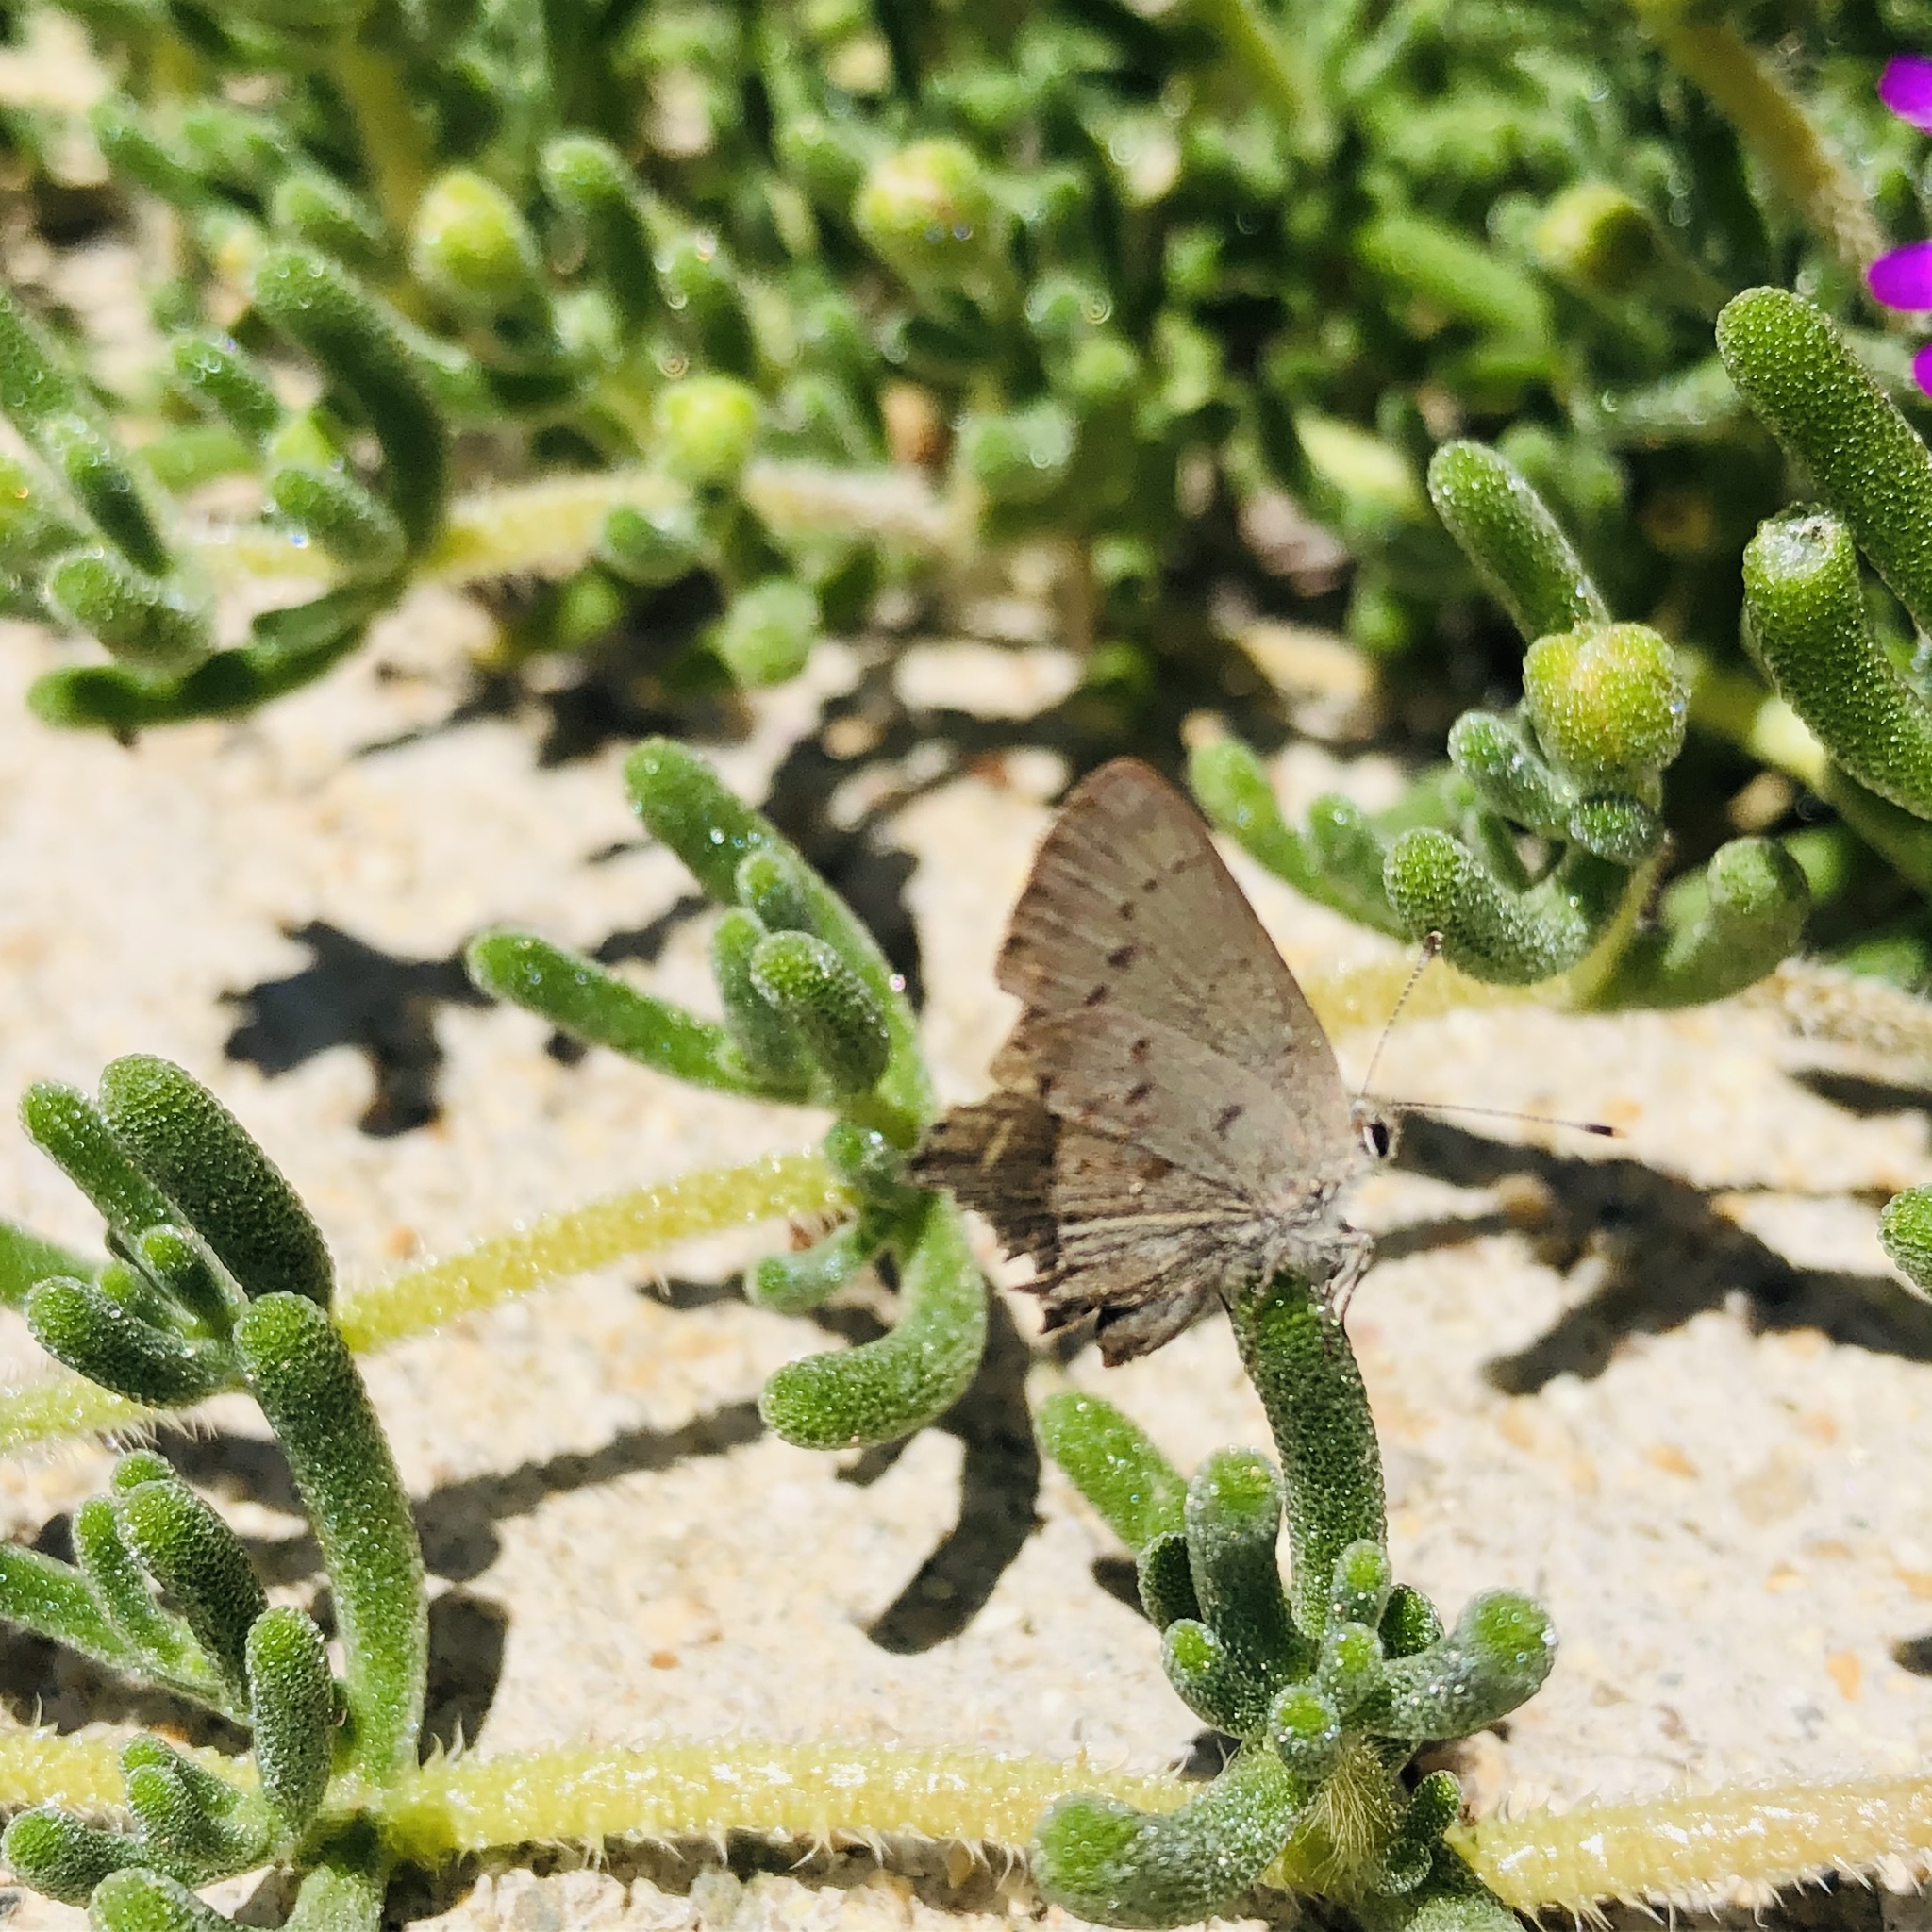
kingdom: Animalia
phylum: Arthropoda
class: Insecta
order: Lepidoptera
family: Lycaenidae
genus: Strymon
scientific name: Strymon eurytulus
